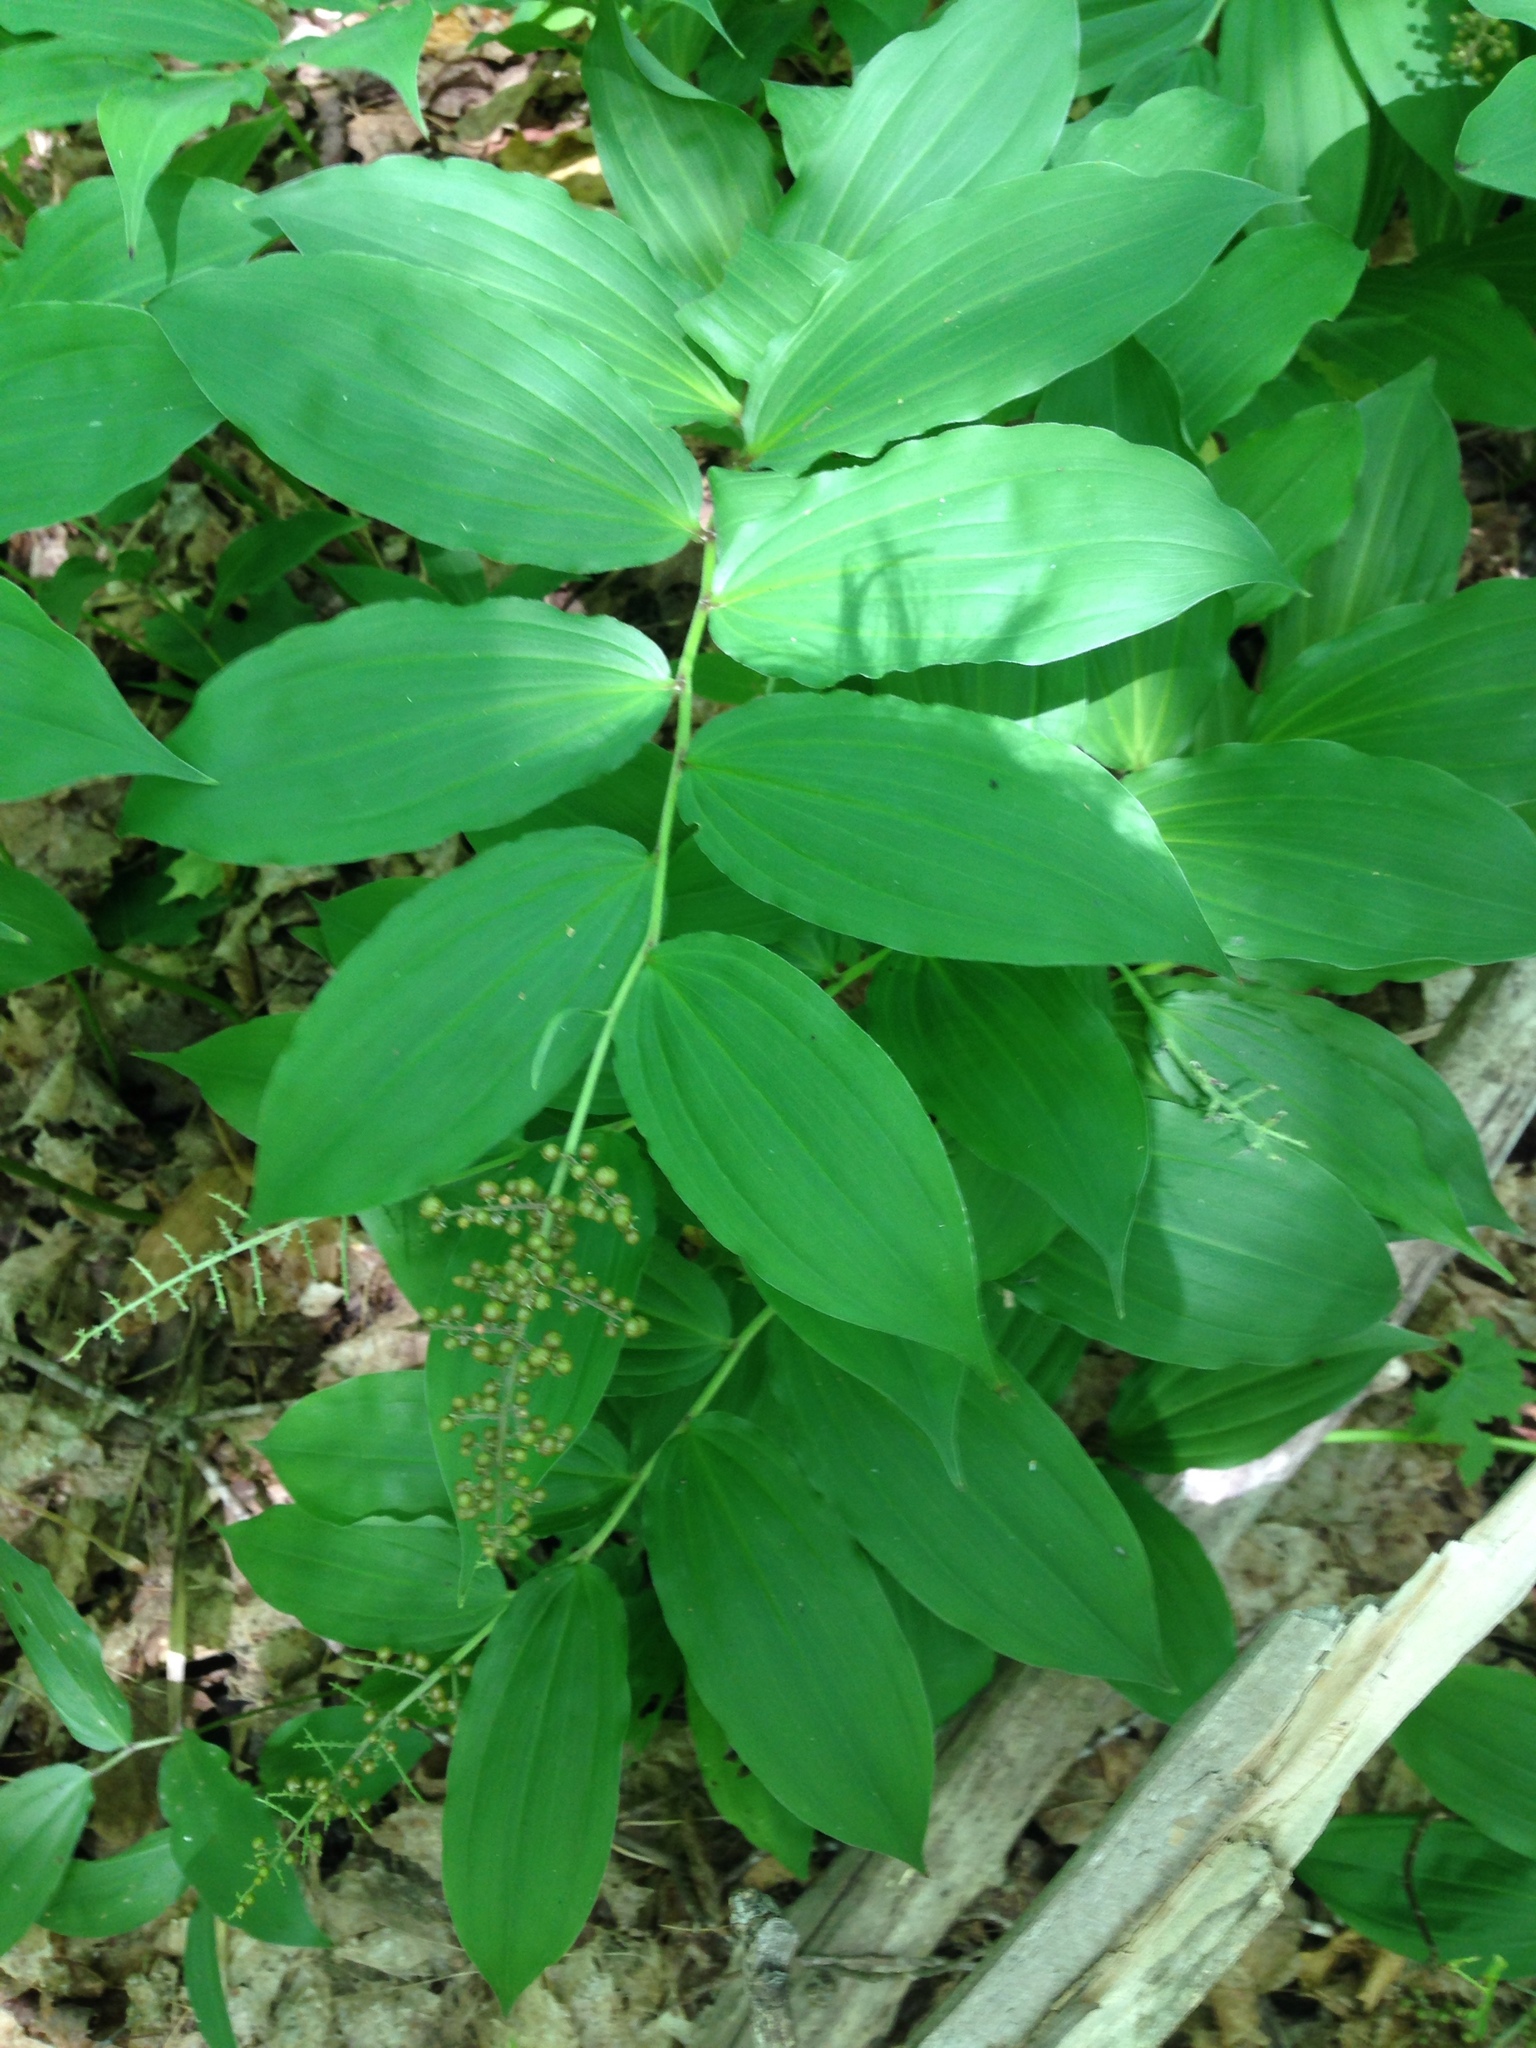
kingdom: Plantae
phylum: Tracheophyta
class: Liliopsida
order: Asparagales
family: Asparagaceae
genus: Maianthemum
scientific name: Maianthemum racemosum
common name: False spikenard
